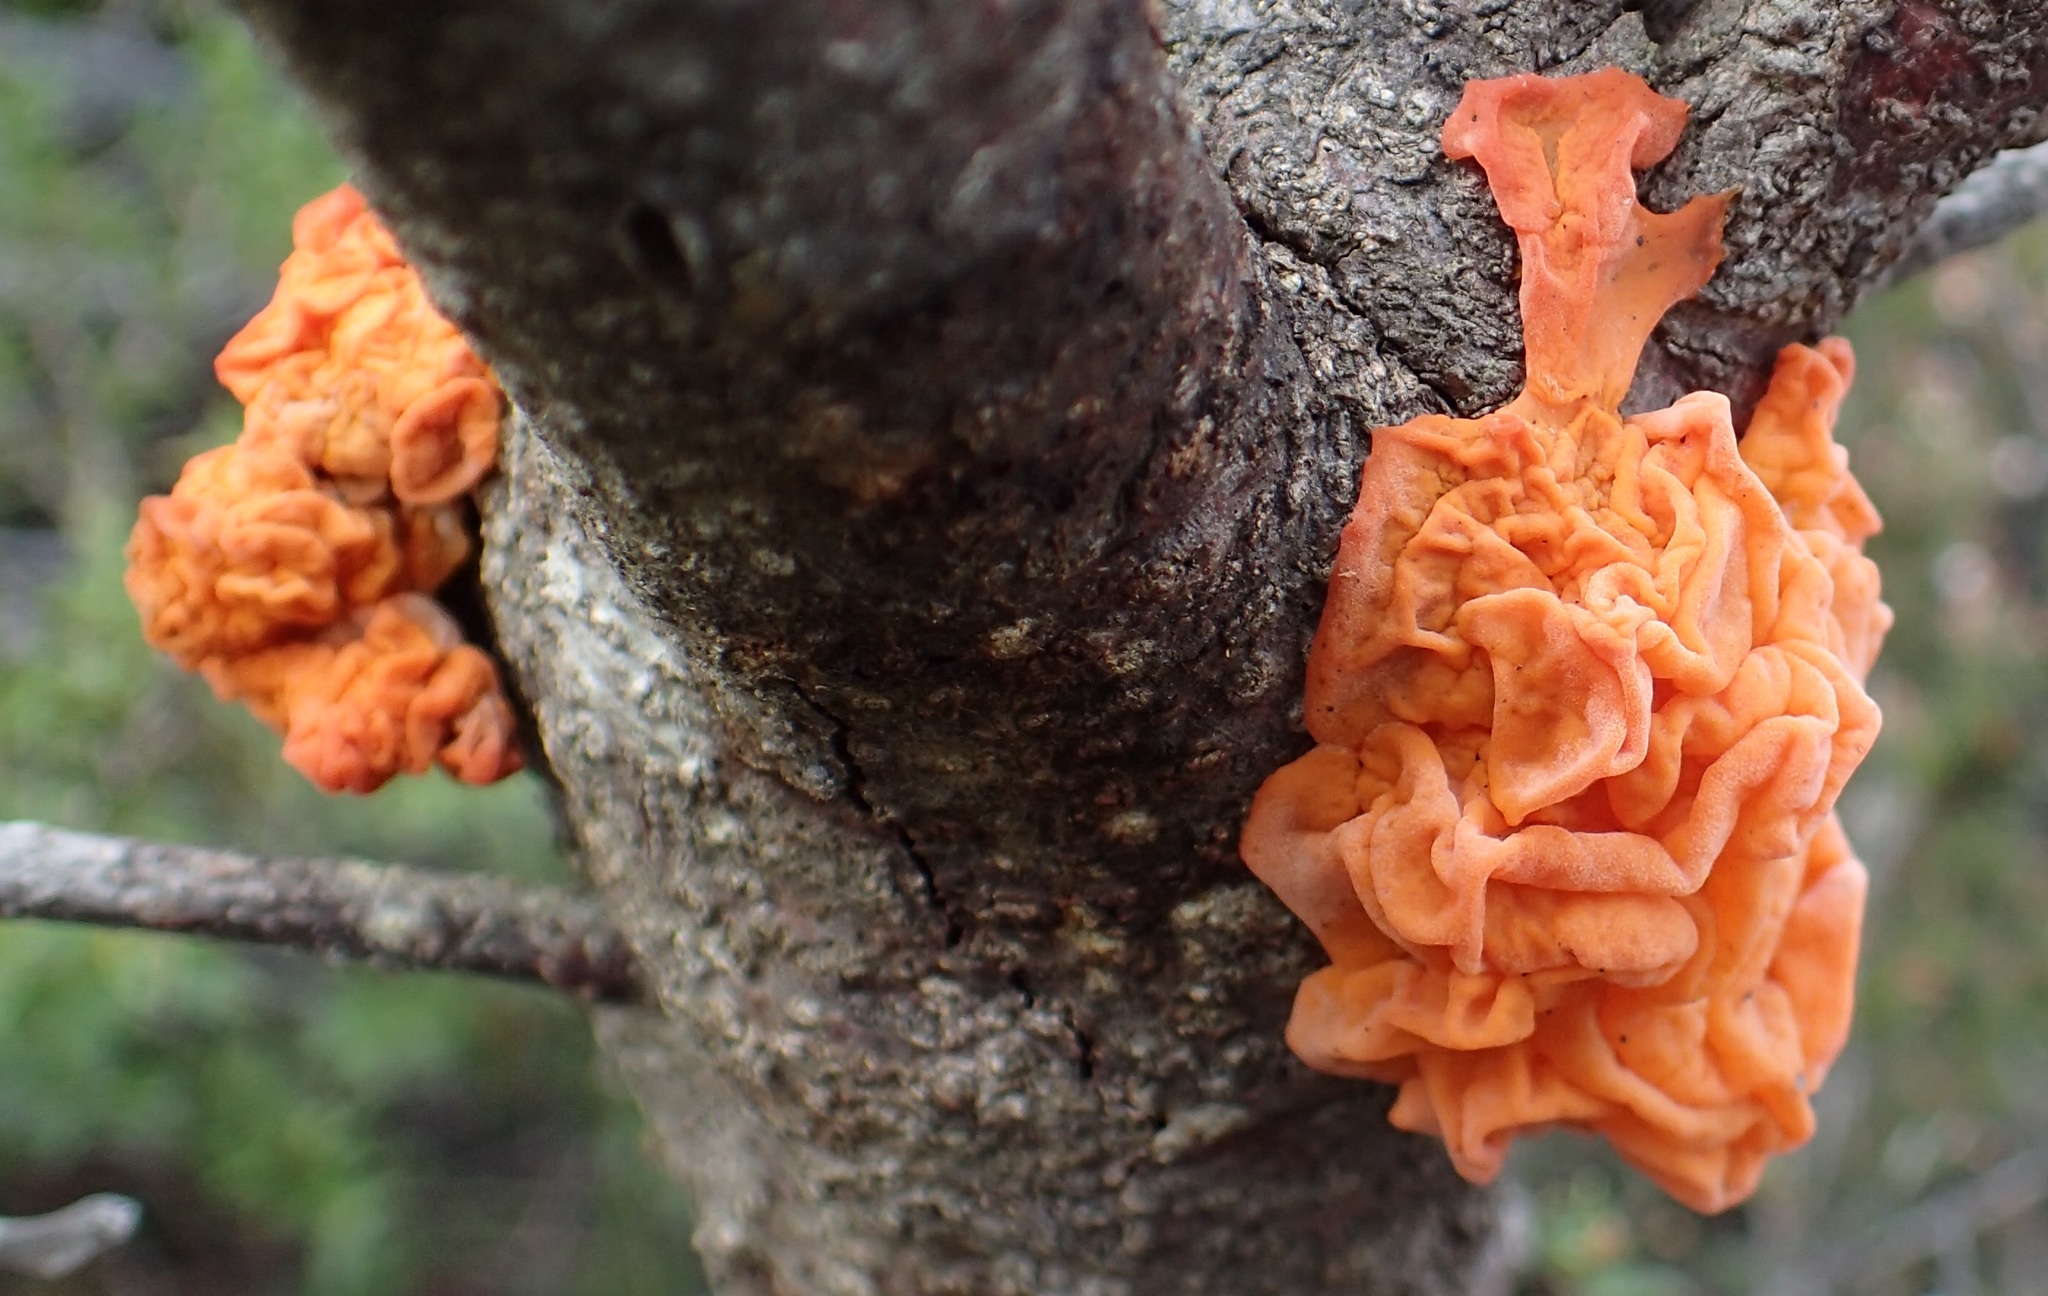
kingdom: Fungi
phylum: Basidiomycota
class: Tremellomycetes
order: Tremellales
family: Tremellaceae
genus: Tremella
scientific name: Tremella mesenterica
